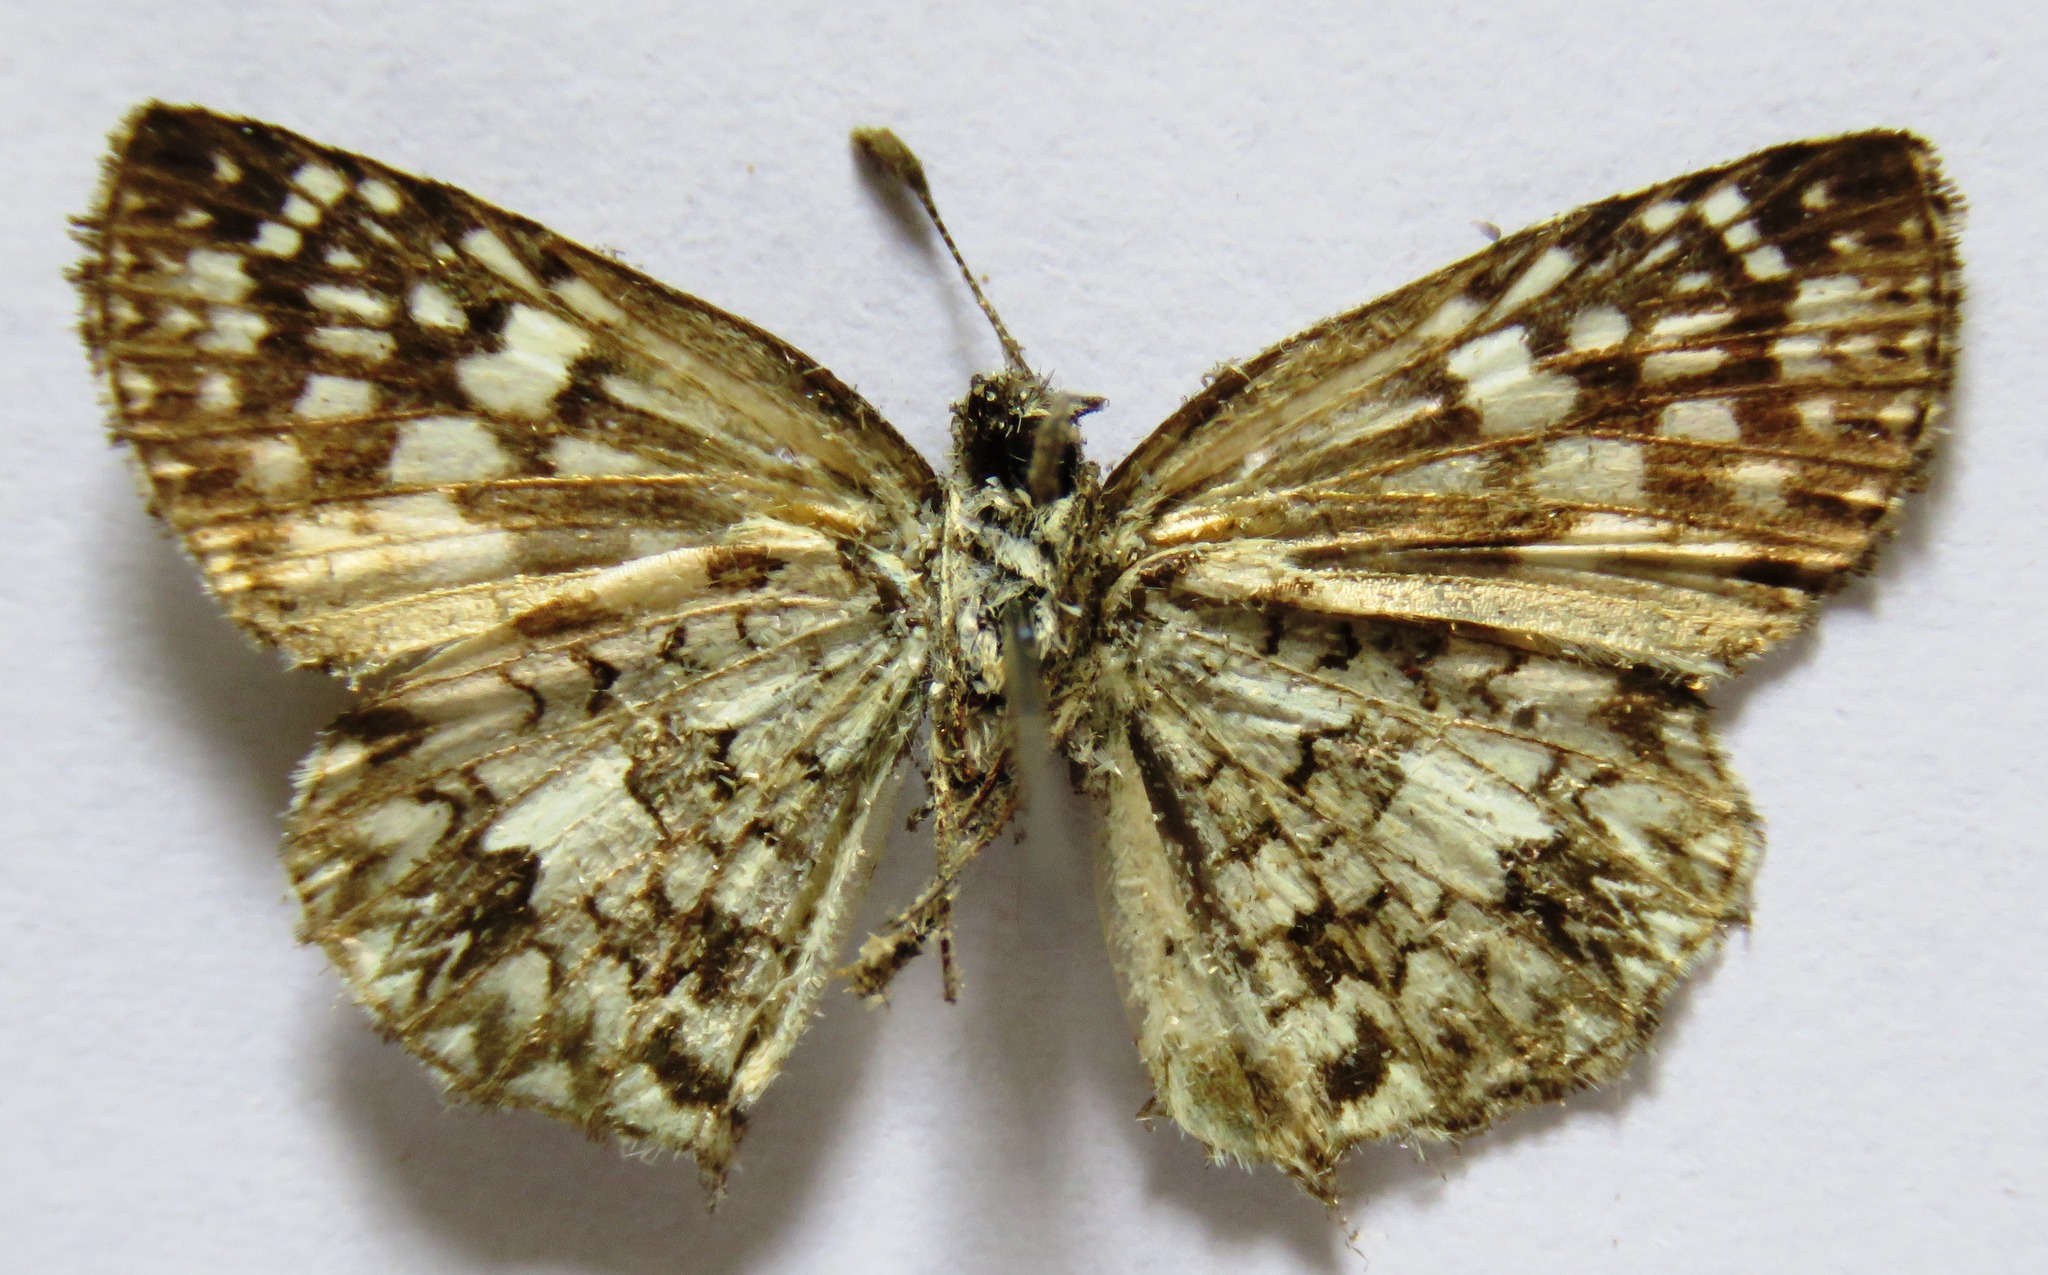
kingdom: Animalia
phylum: Arthropoda
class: Insecta
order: Lepidoptera
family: Hesperiidae
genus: Pyrgus
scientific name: Pyrgus oileus
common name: Tropical checkered-skipper
